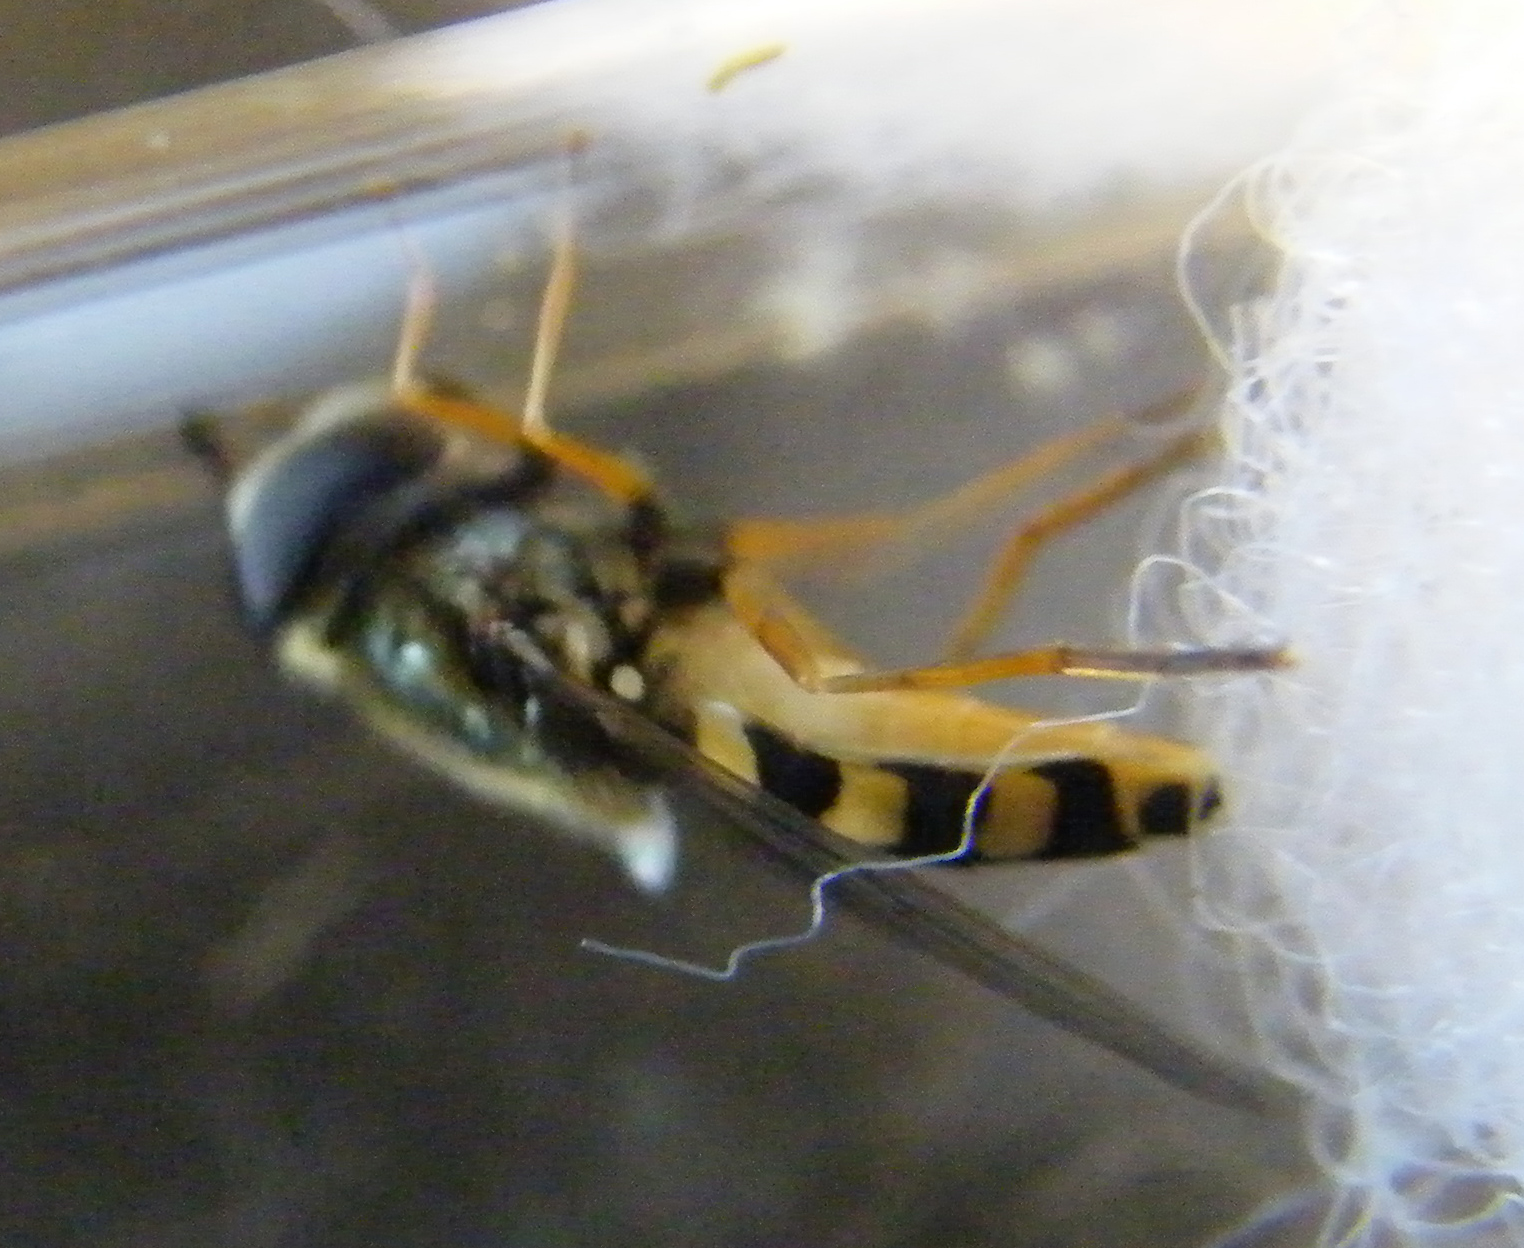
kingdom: Animalia
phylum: Arthropoda
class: Insecta
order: Diptera
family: Syrphidae
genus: Eupeodes
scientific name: Eupeodes corollae
